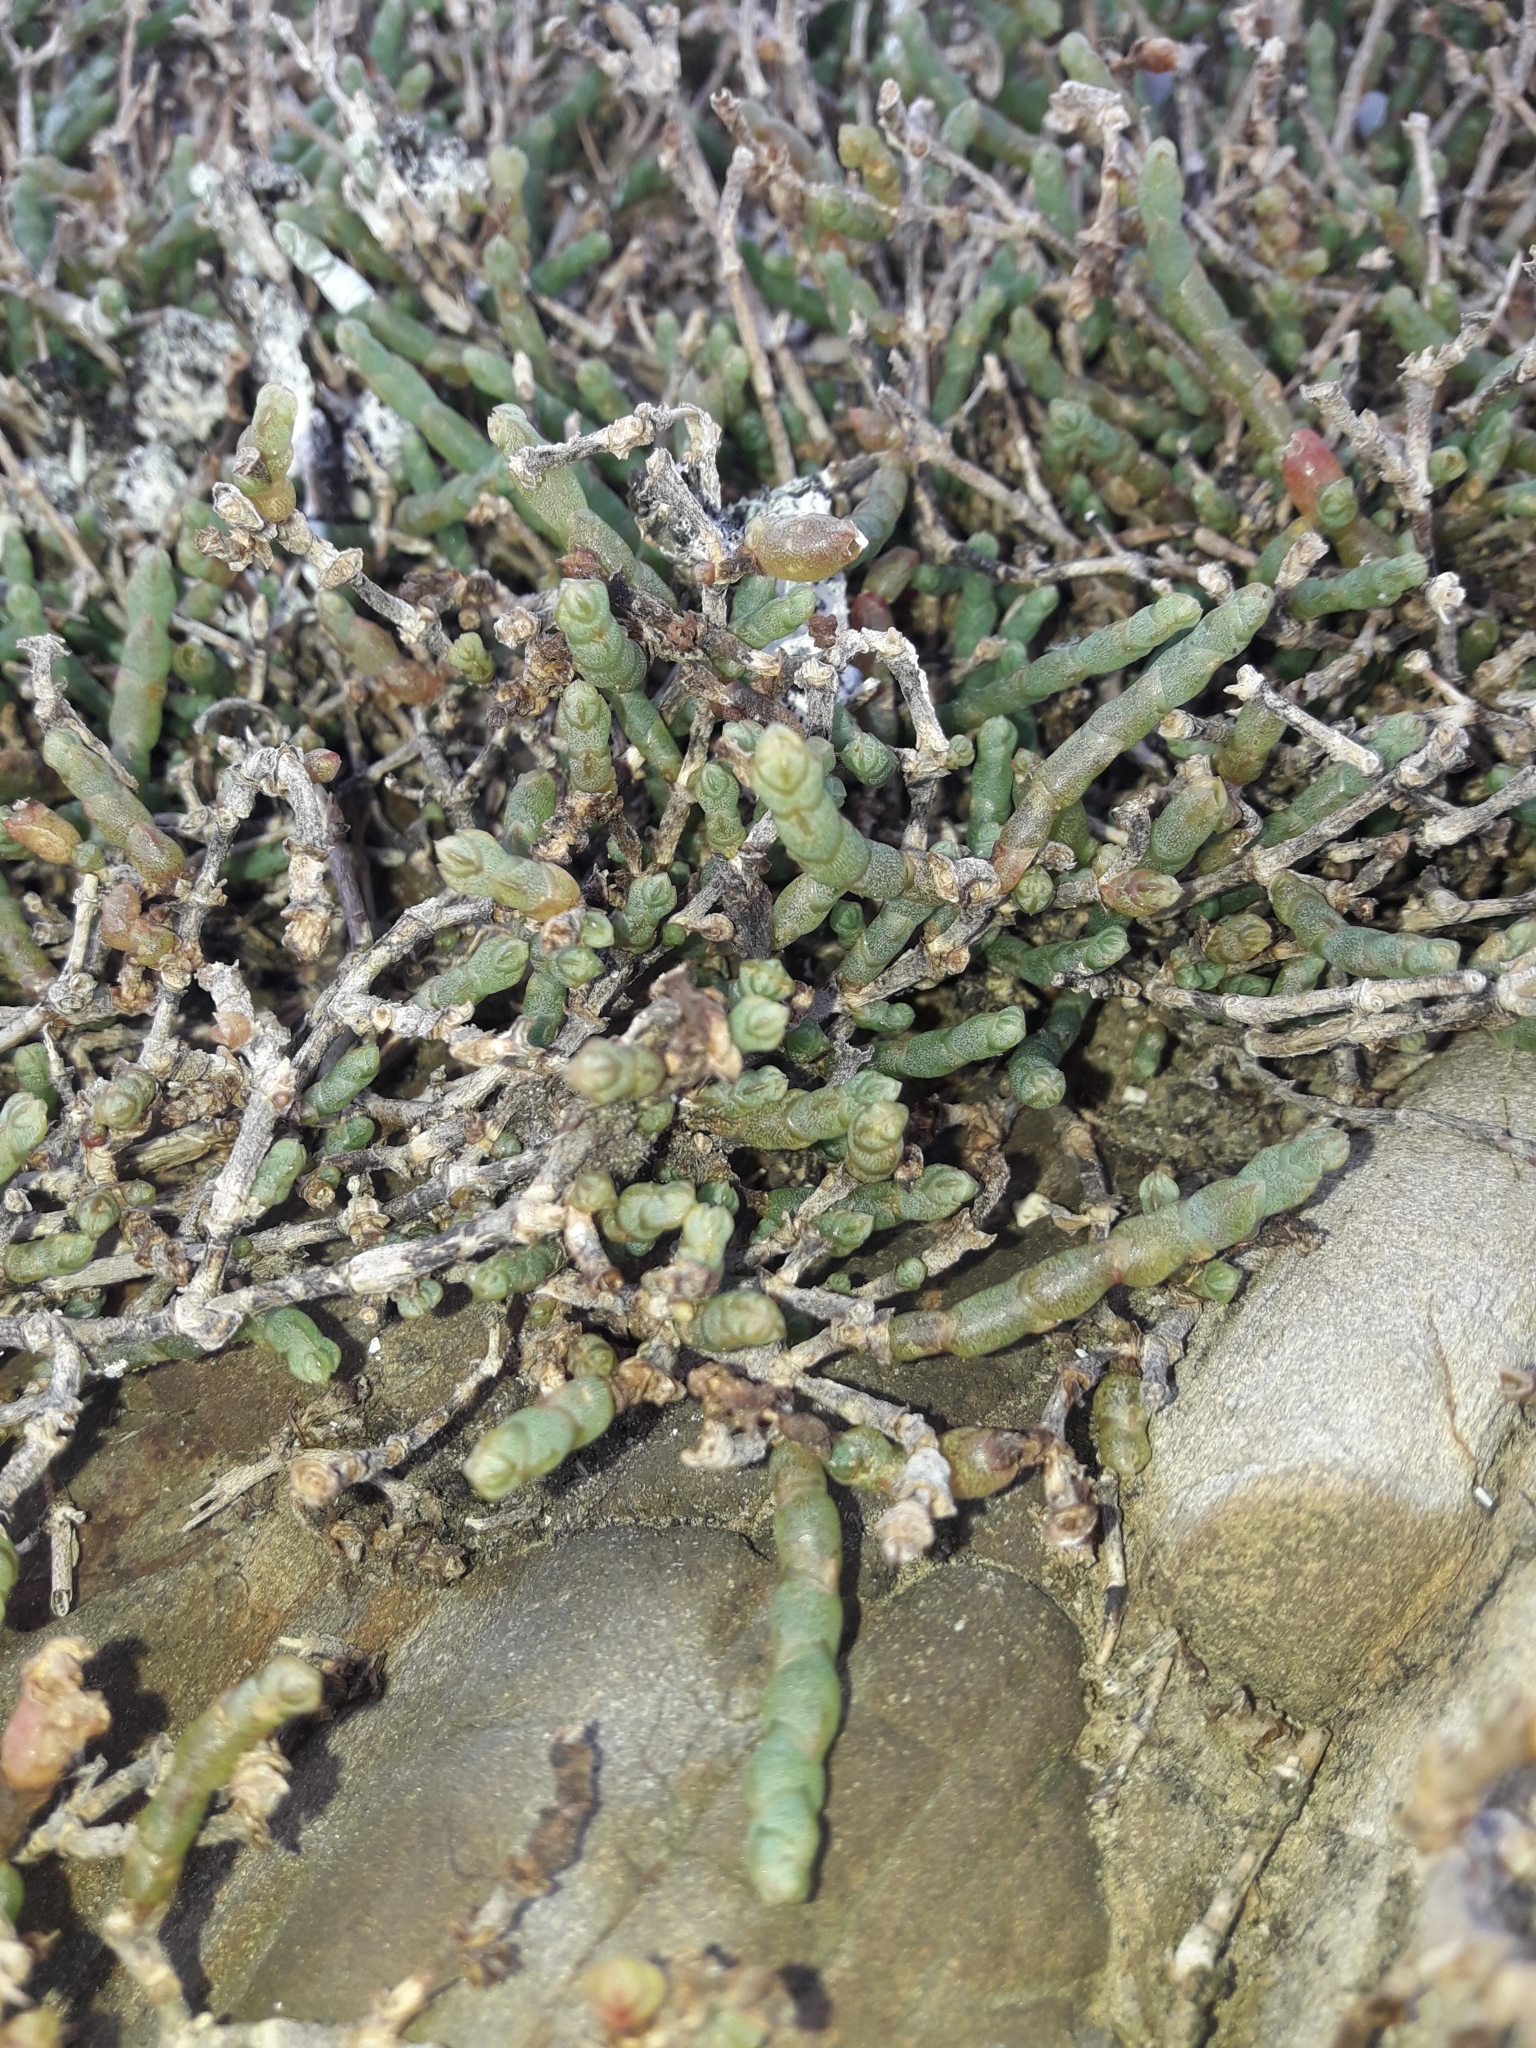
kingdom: Plantae
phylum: Tracheophyta
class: Magnoliopsida
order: Caryophyllales
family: Amaranthaceae
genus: Salicornia
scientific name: Salicornia quinqueflora
